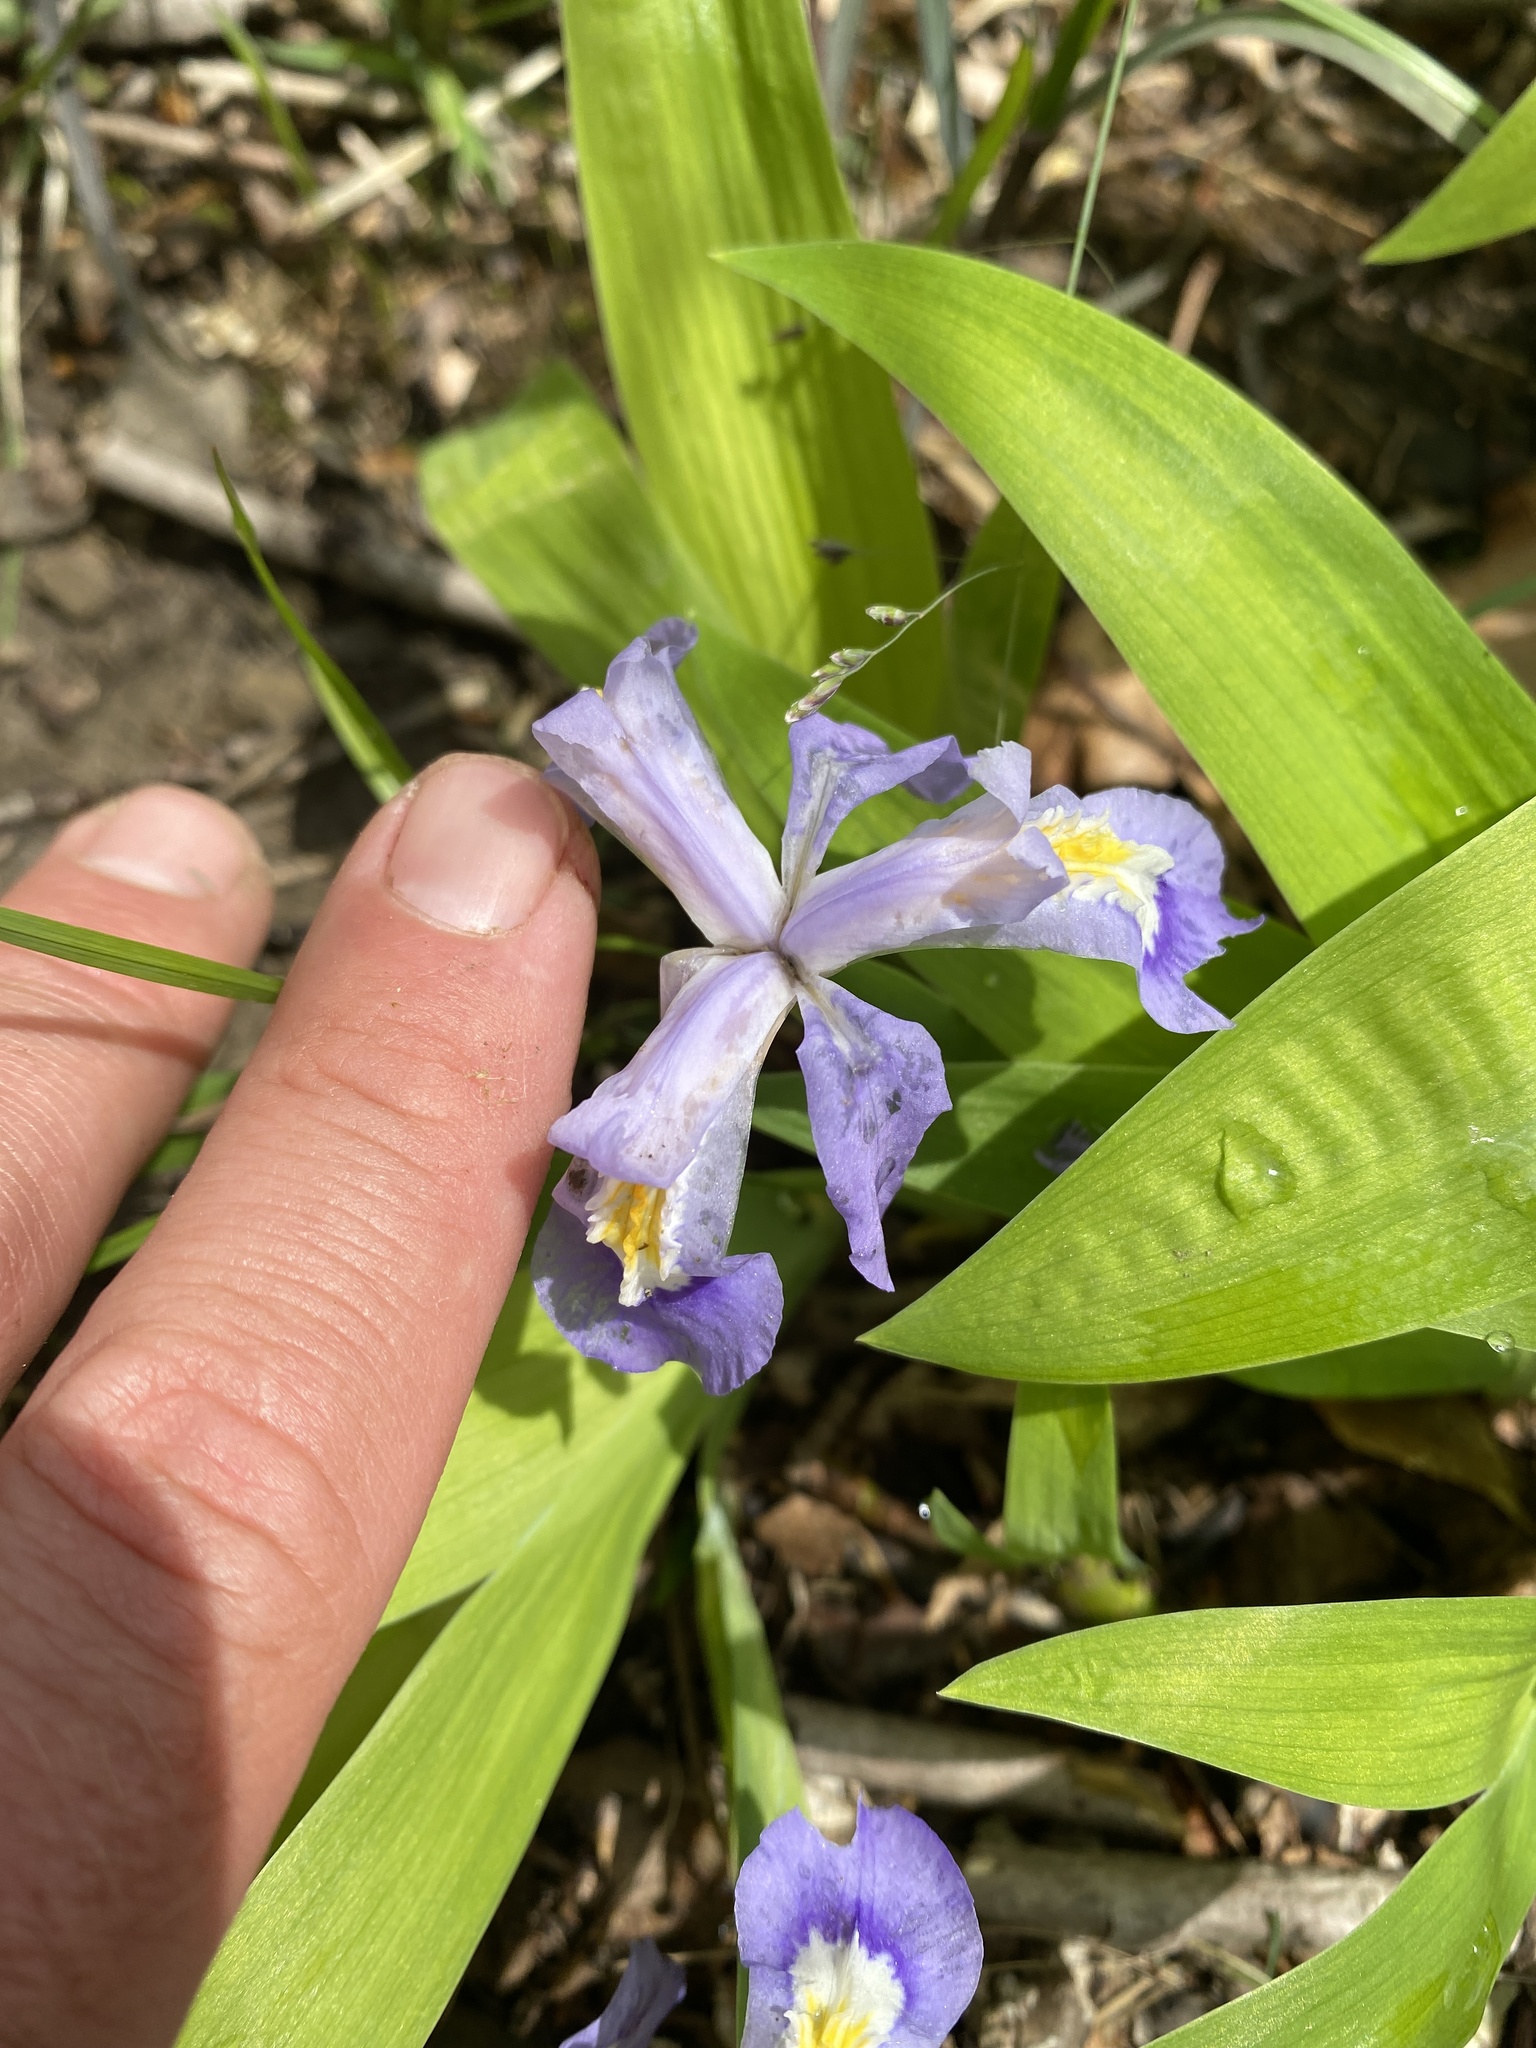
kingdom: Plantae
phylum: Tracheophyta
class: Liliopsida
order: Asparagales
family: Iridaceae
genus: Iris
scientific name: Iris cristata
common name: Crested iris
